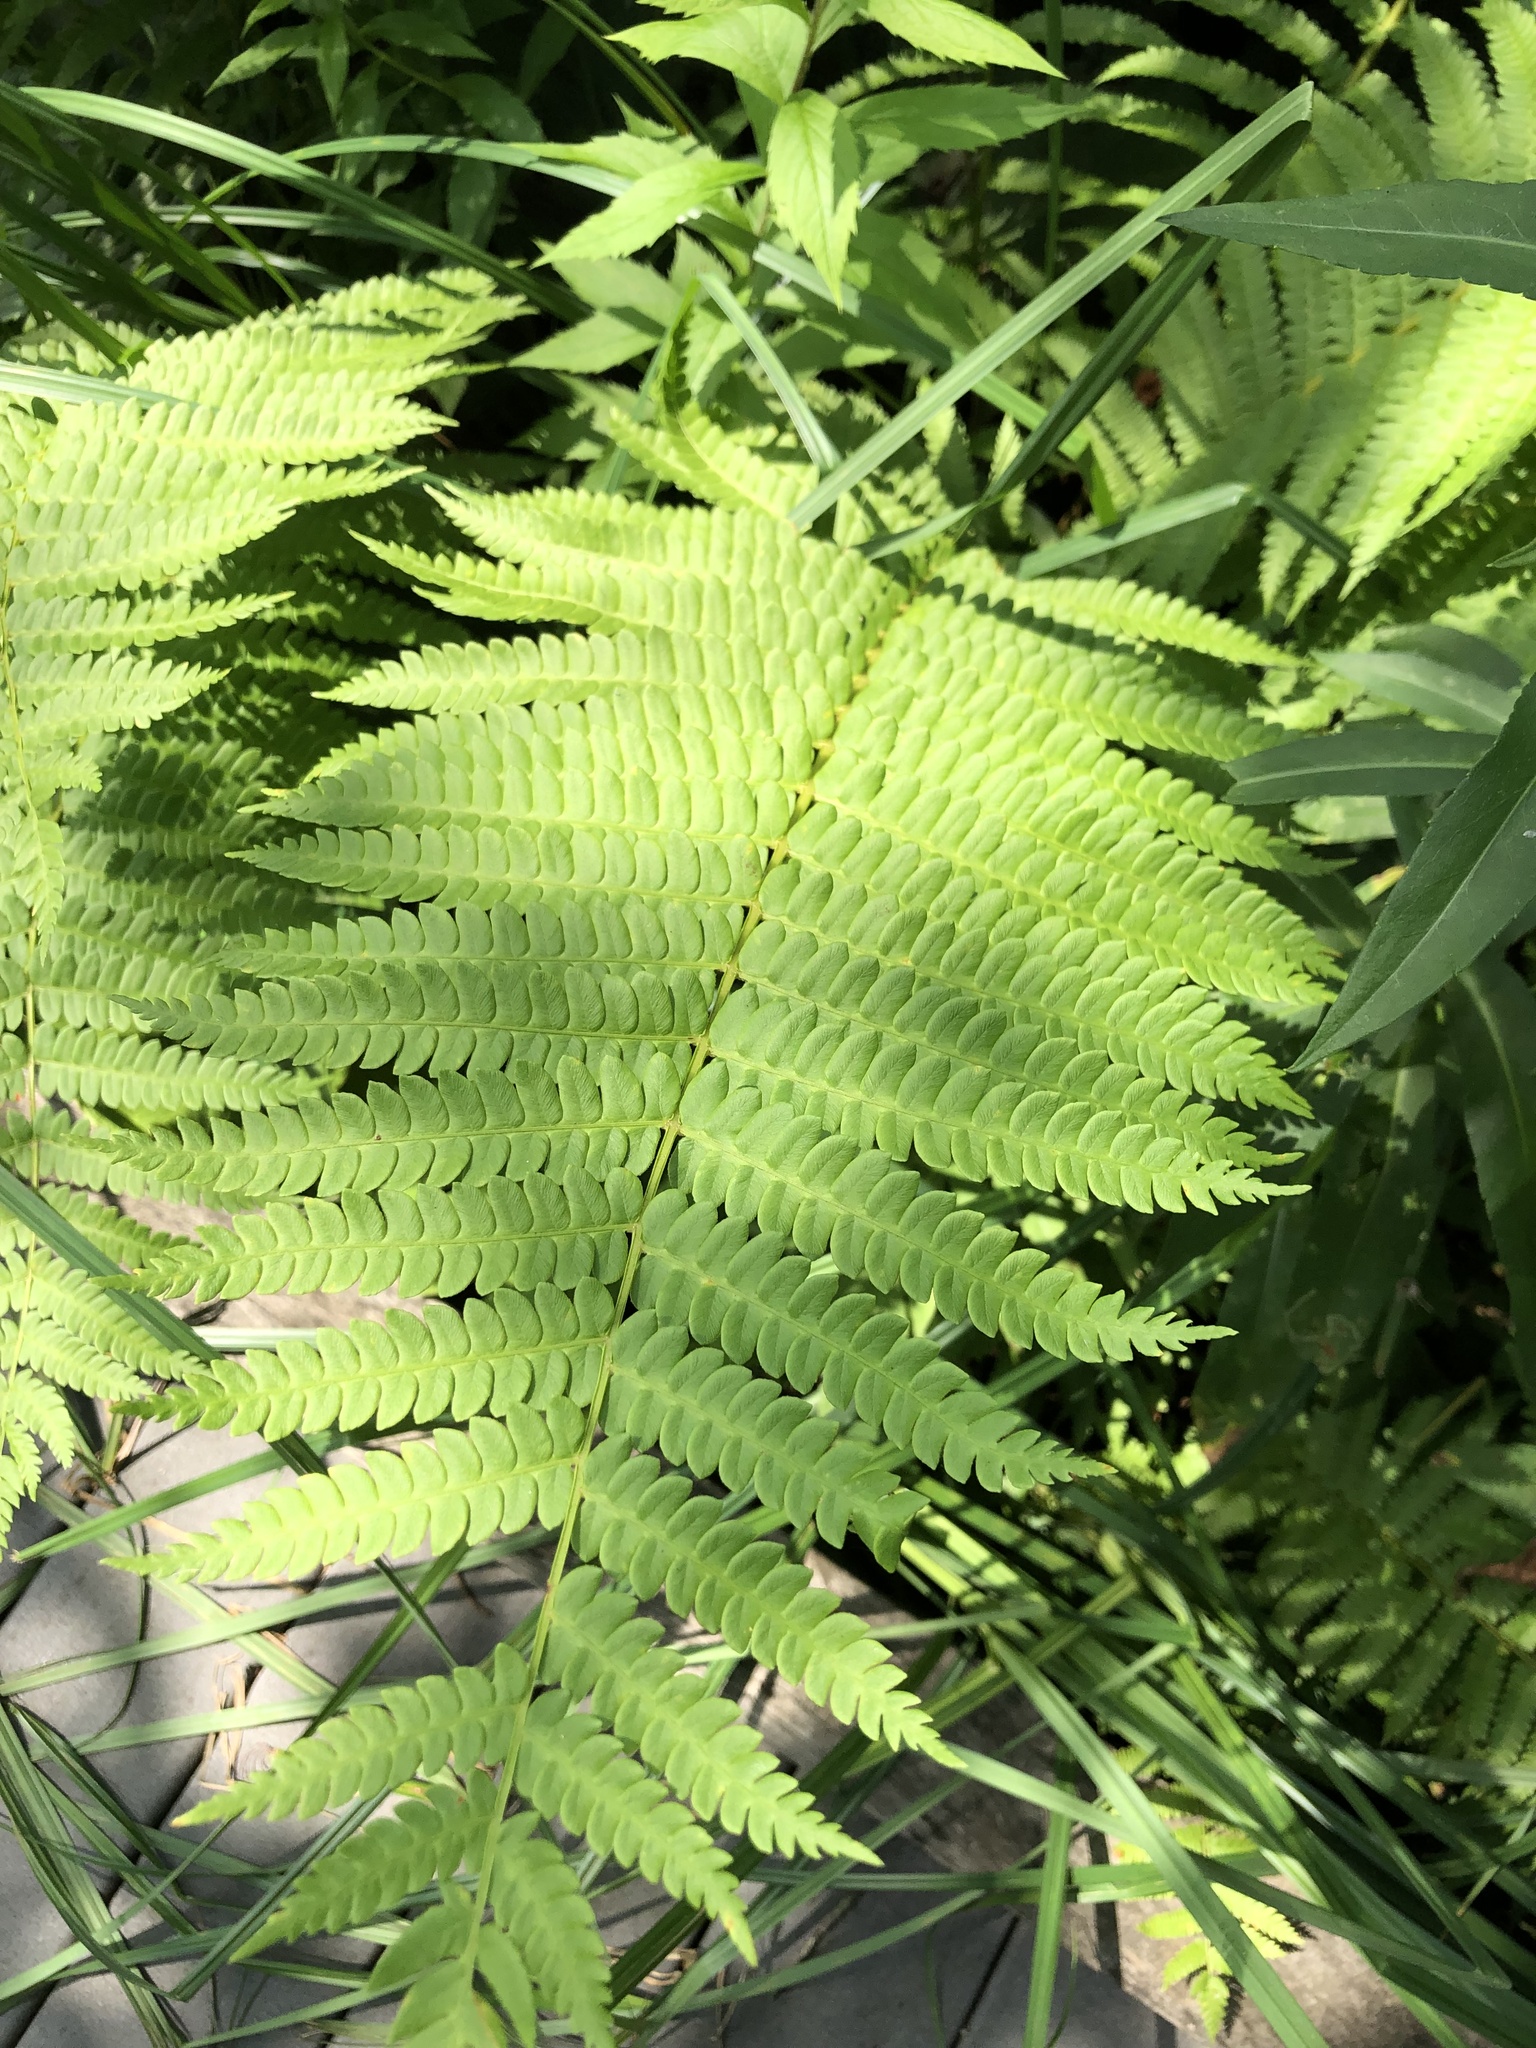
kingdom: Plantae
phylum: Tracheophyta
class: Polypodiopsida
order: Osmundales
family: Osmundaceae
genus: Osmundastrum
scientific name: Osmundastrum cinnamomeum
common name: Cinnamon fern
